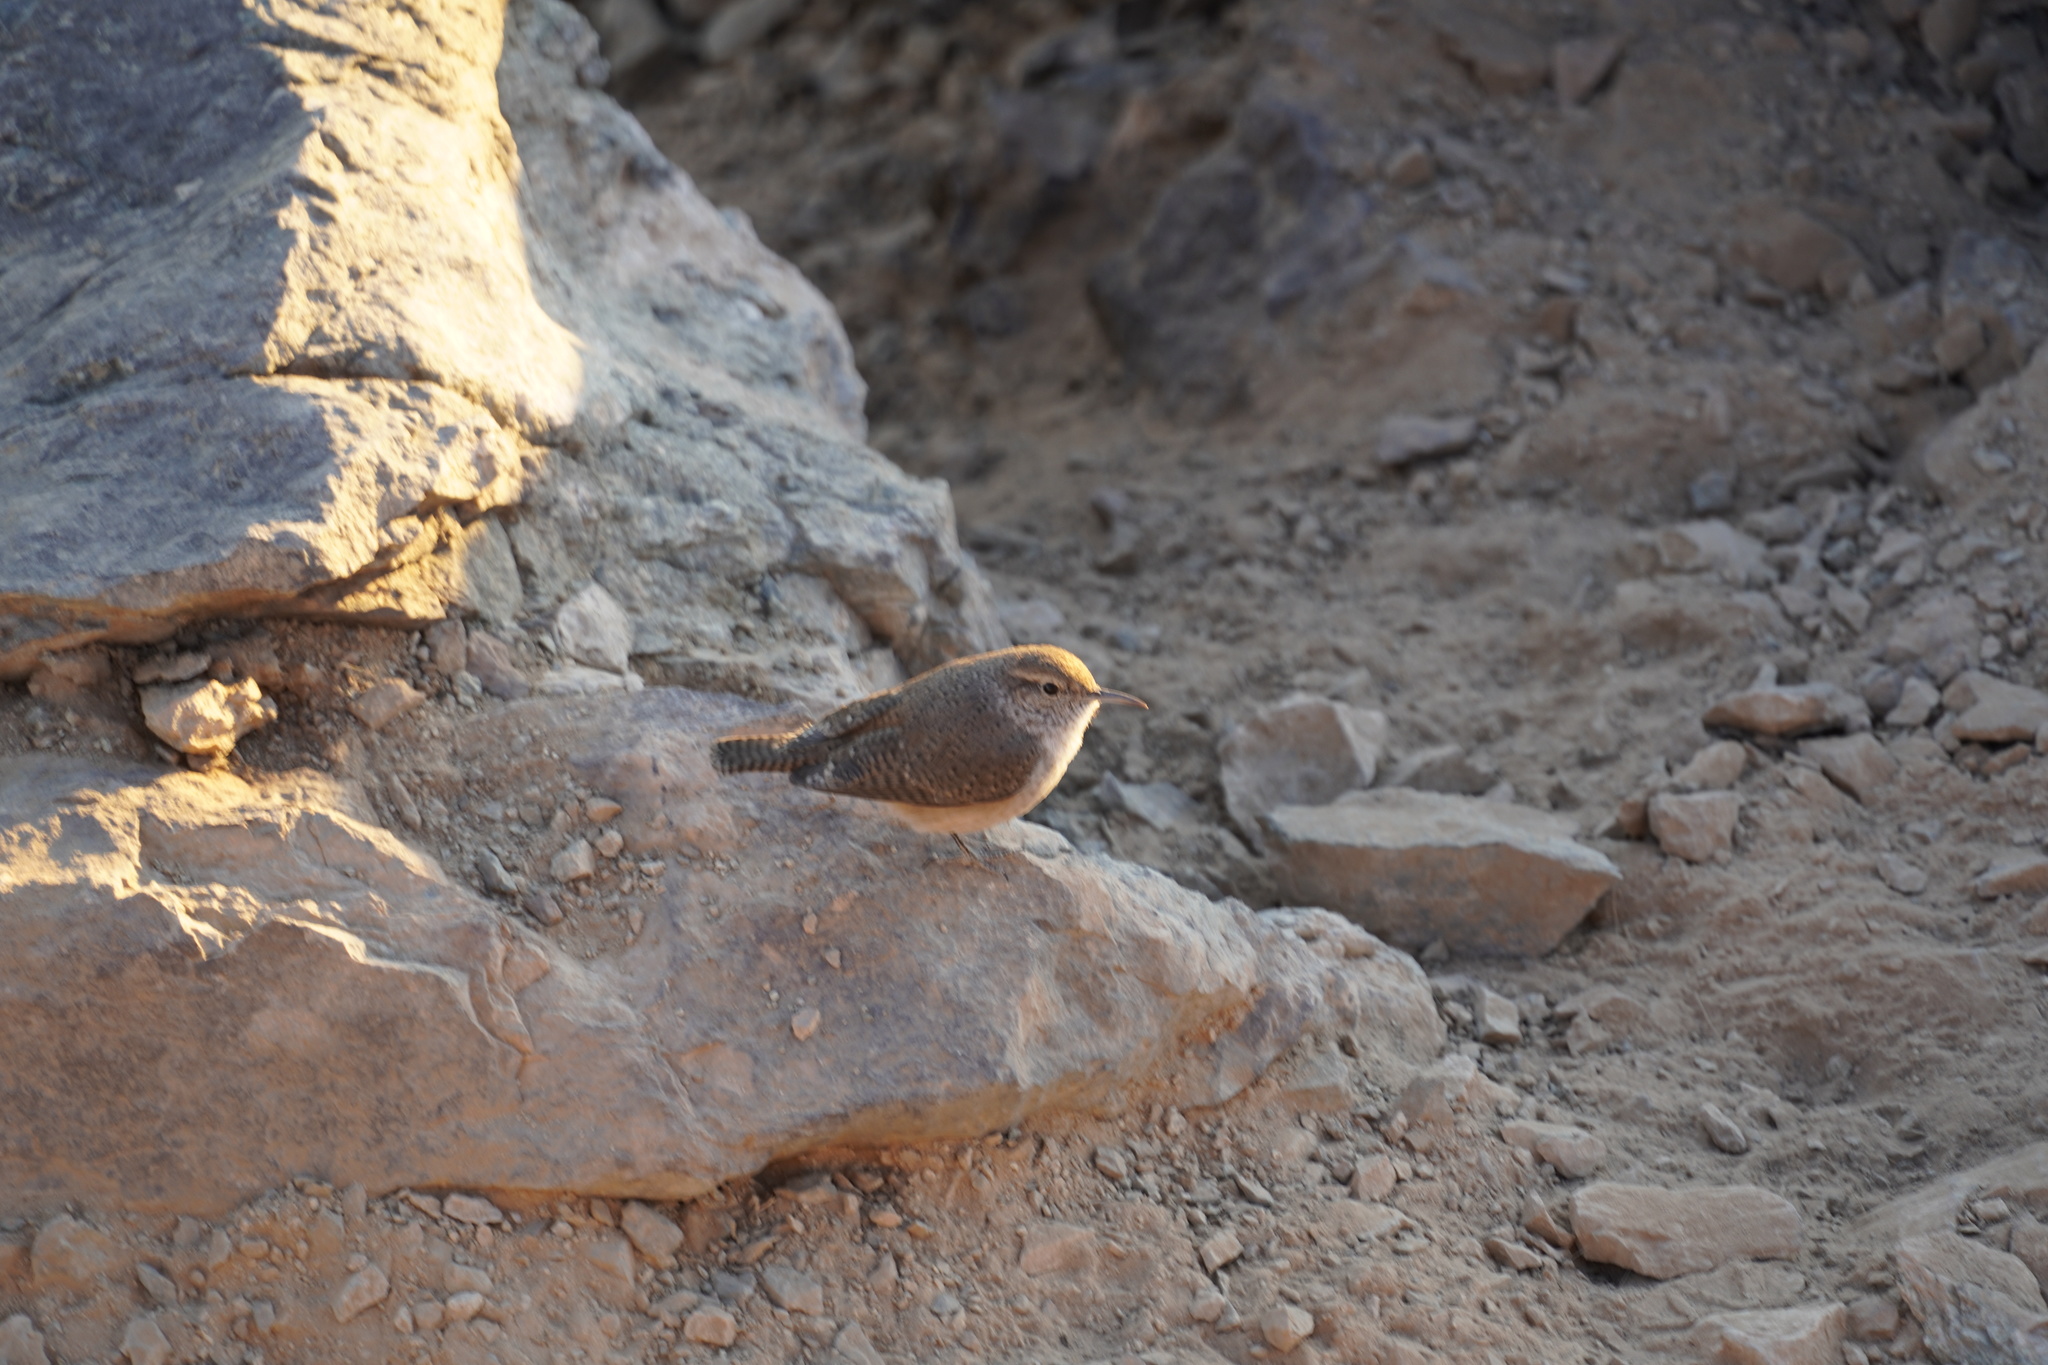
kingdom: Animalia
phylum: Chordata
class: Aves
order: Passeriformes
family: Troglodytidae
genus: Salpinctes
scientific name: Salpinctes obsoletus
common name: Rock wren
